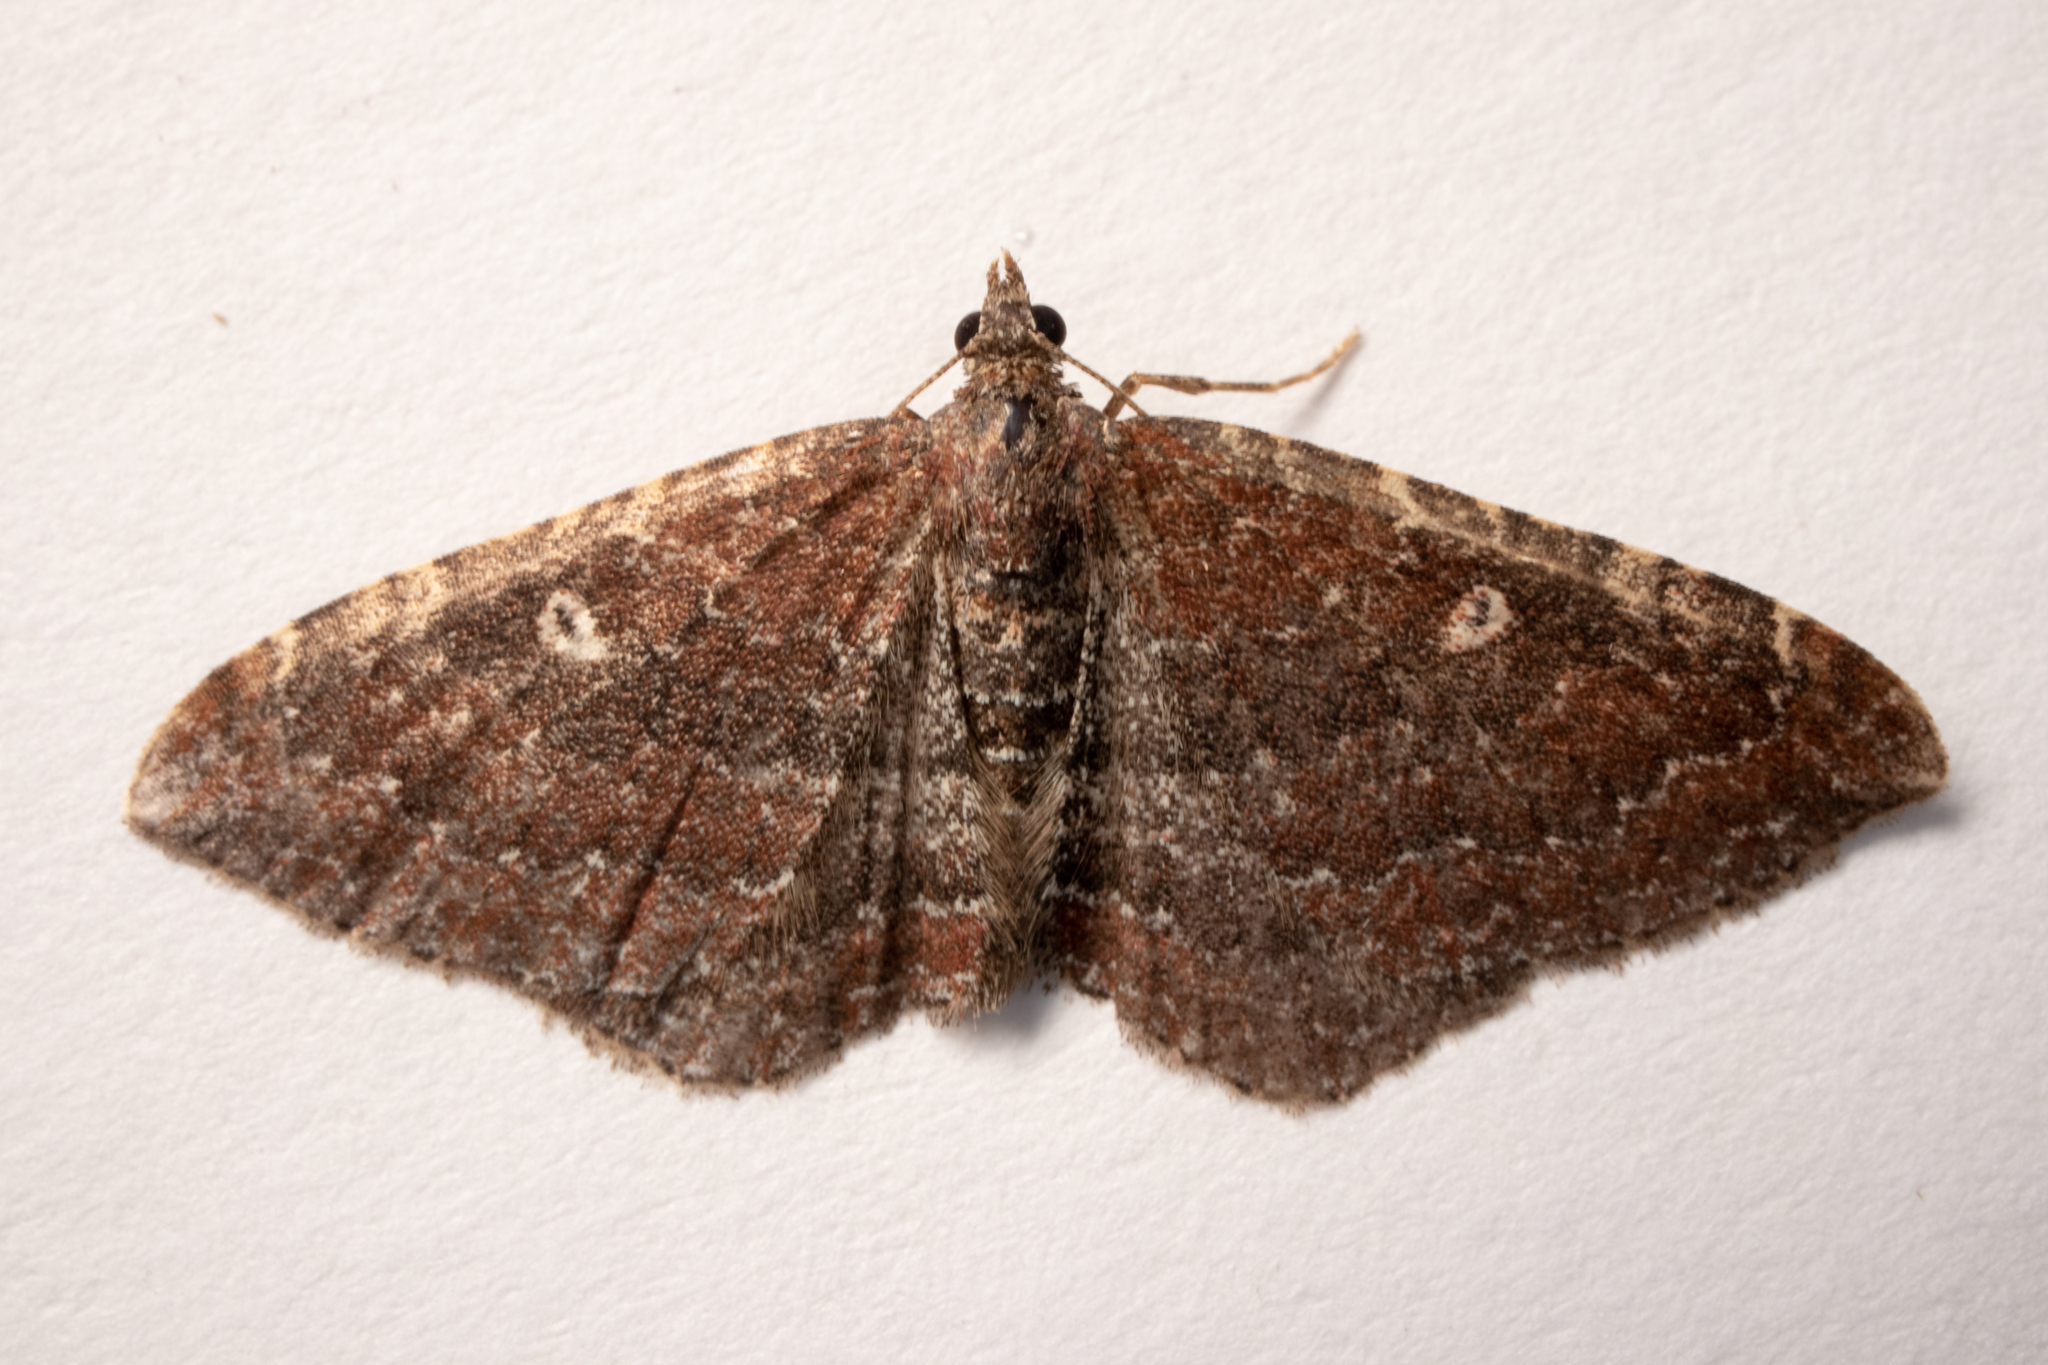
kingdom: Animalia
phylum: Arthropoda
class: Insecta
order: Lepidoptera
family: Geometridae
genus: Orthonama
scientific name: Orthonama obstipata
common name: The gem
